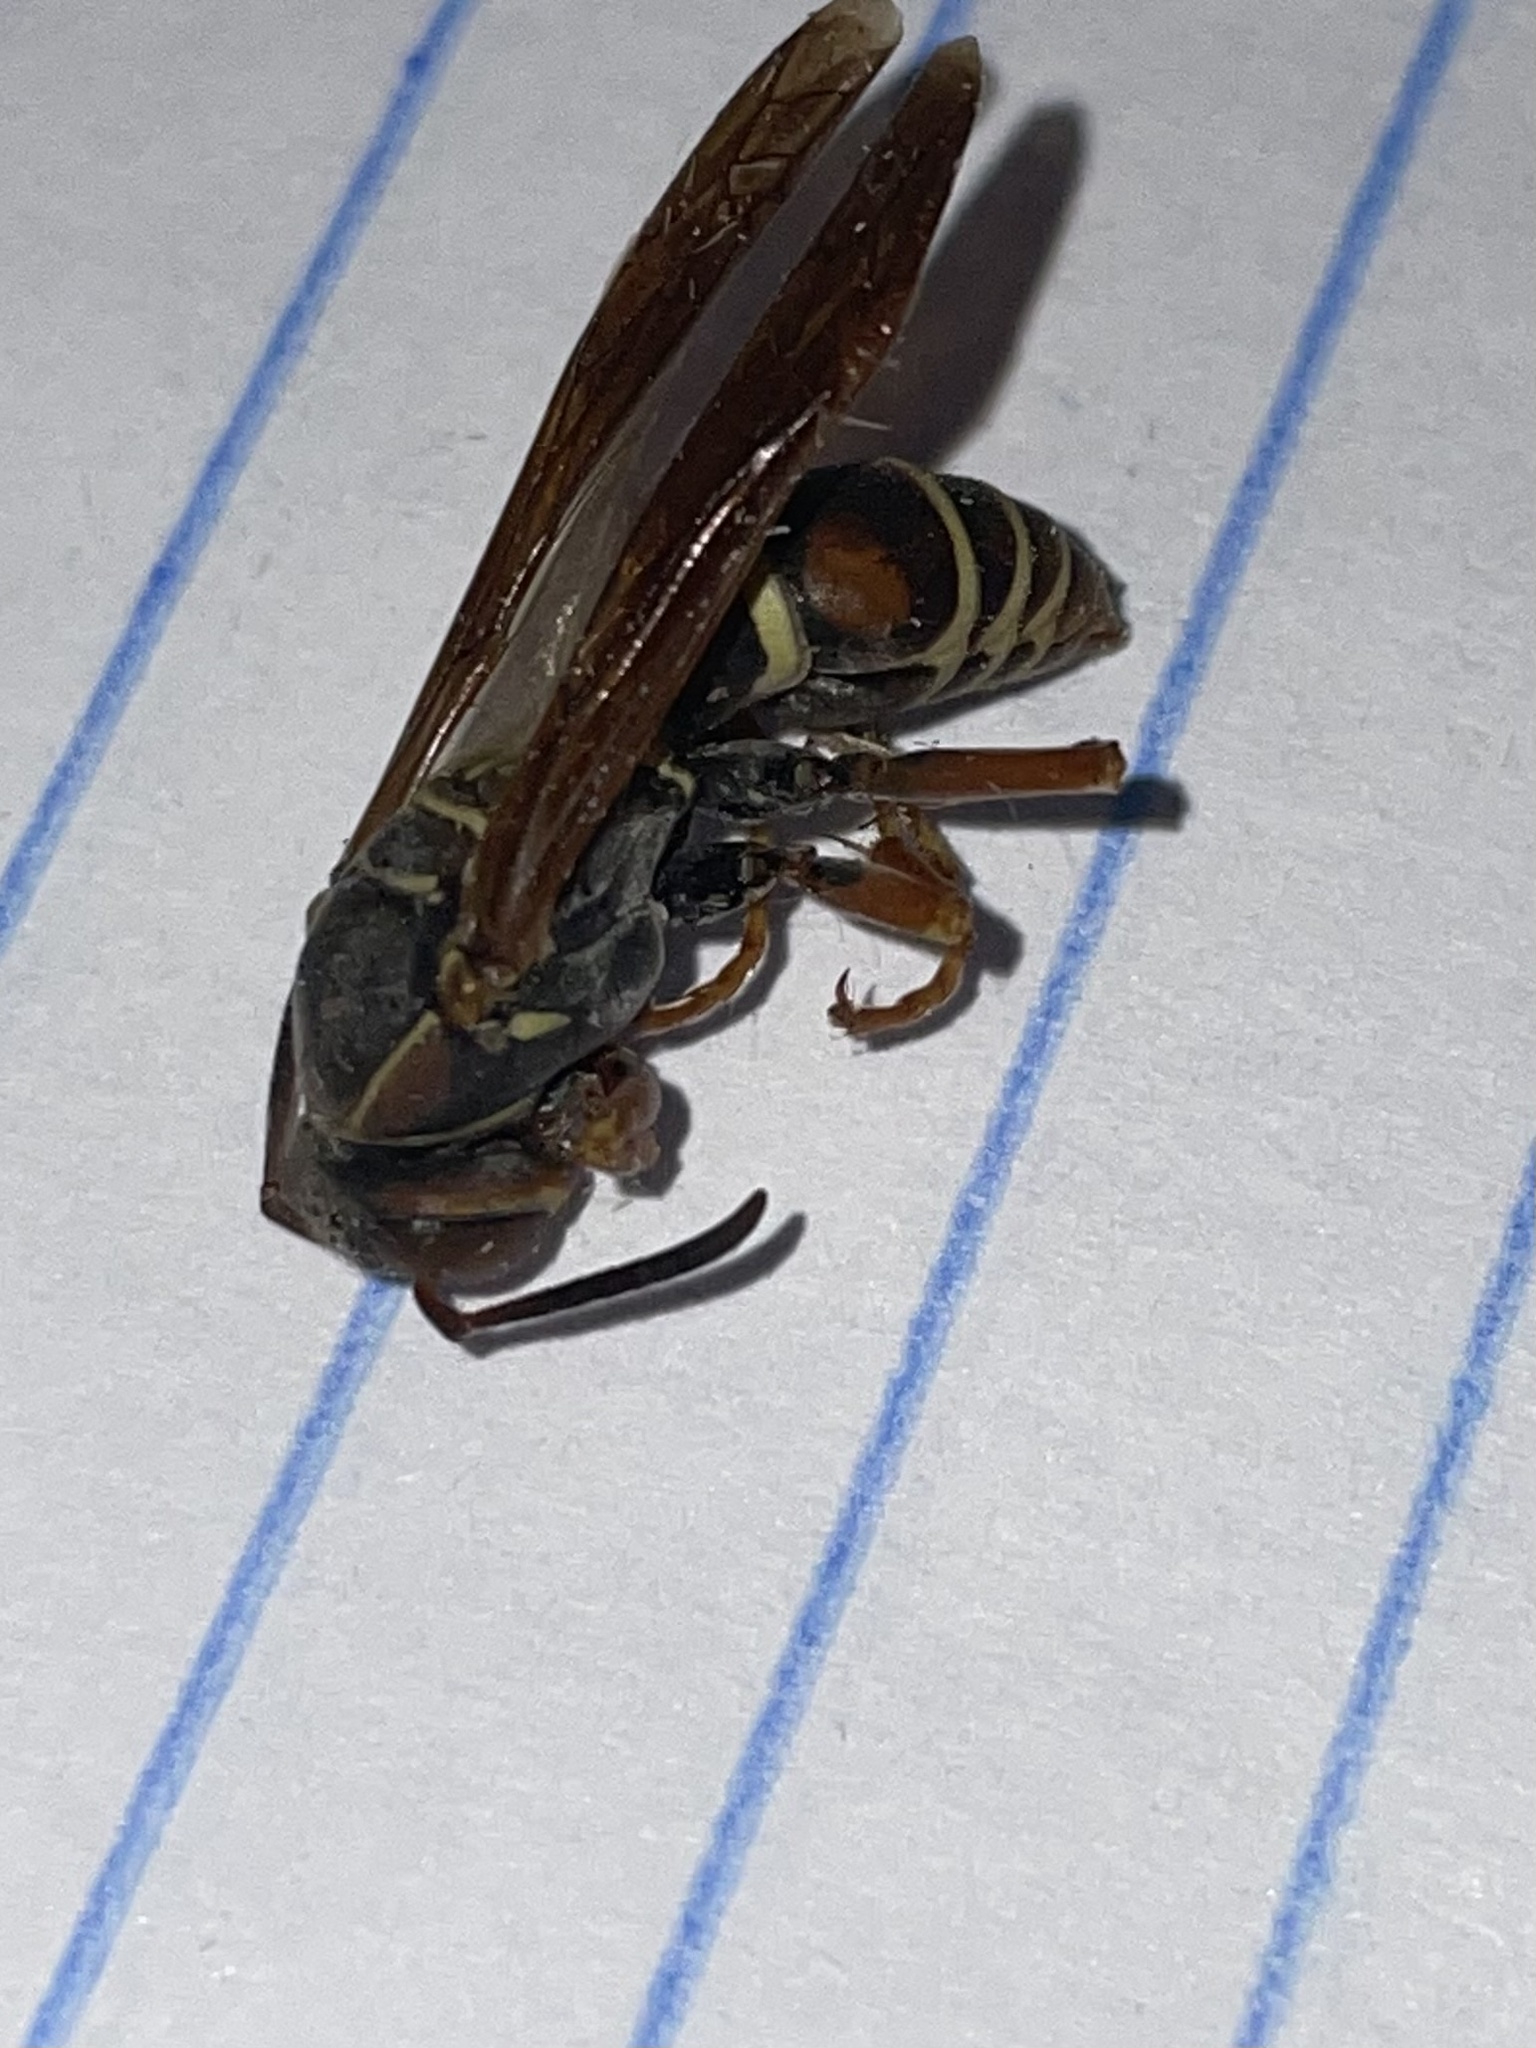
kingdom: Animalia
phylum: Arthropoda
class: Insecta
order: Hymenoptera
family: Eumenidae
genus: Polistes
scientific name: Polistes fuscatus
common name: Dark paper wasp
